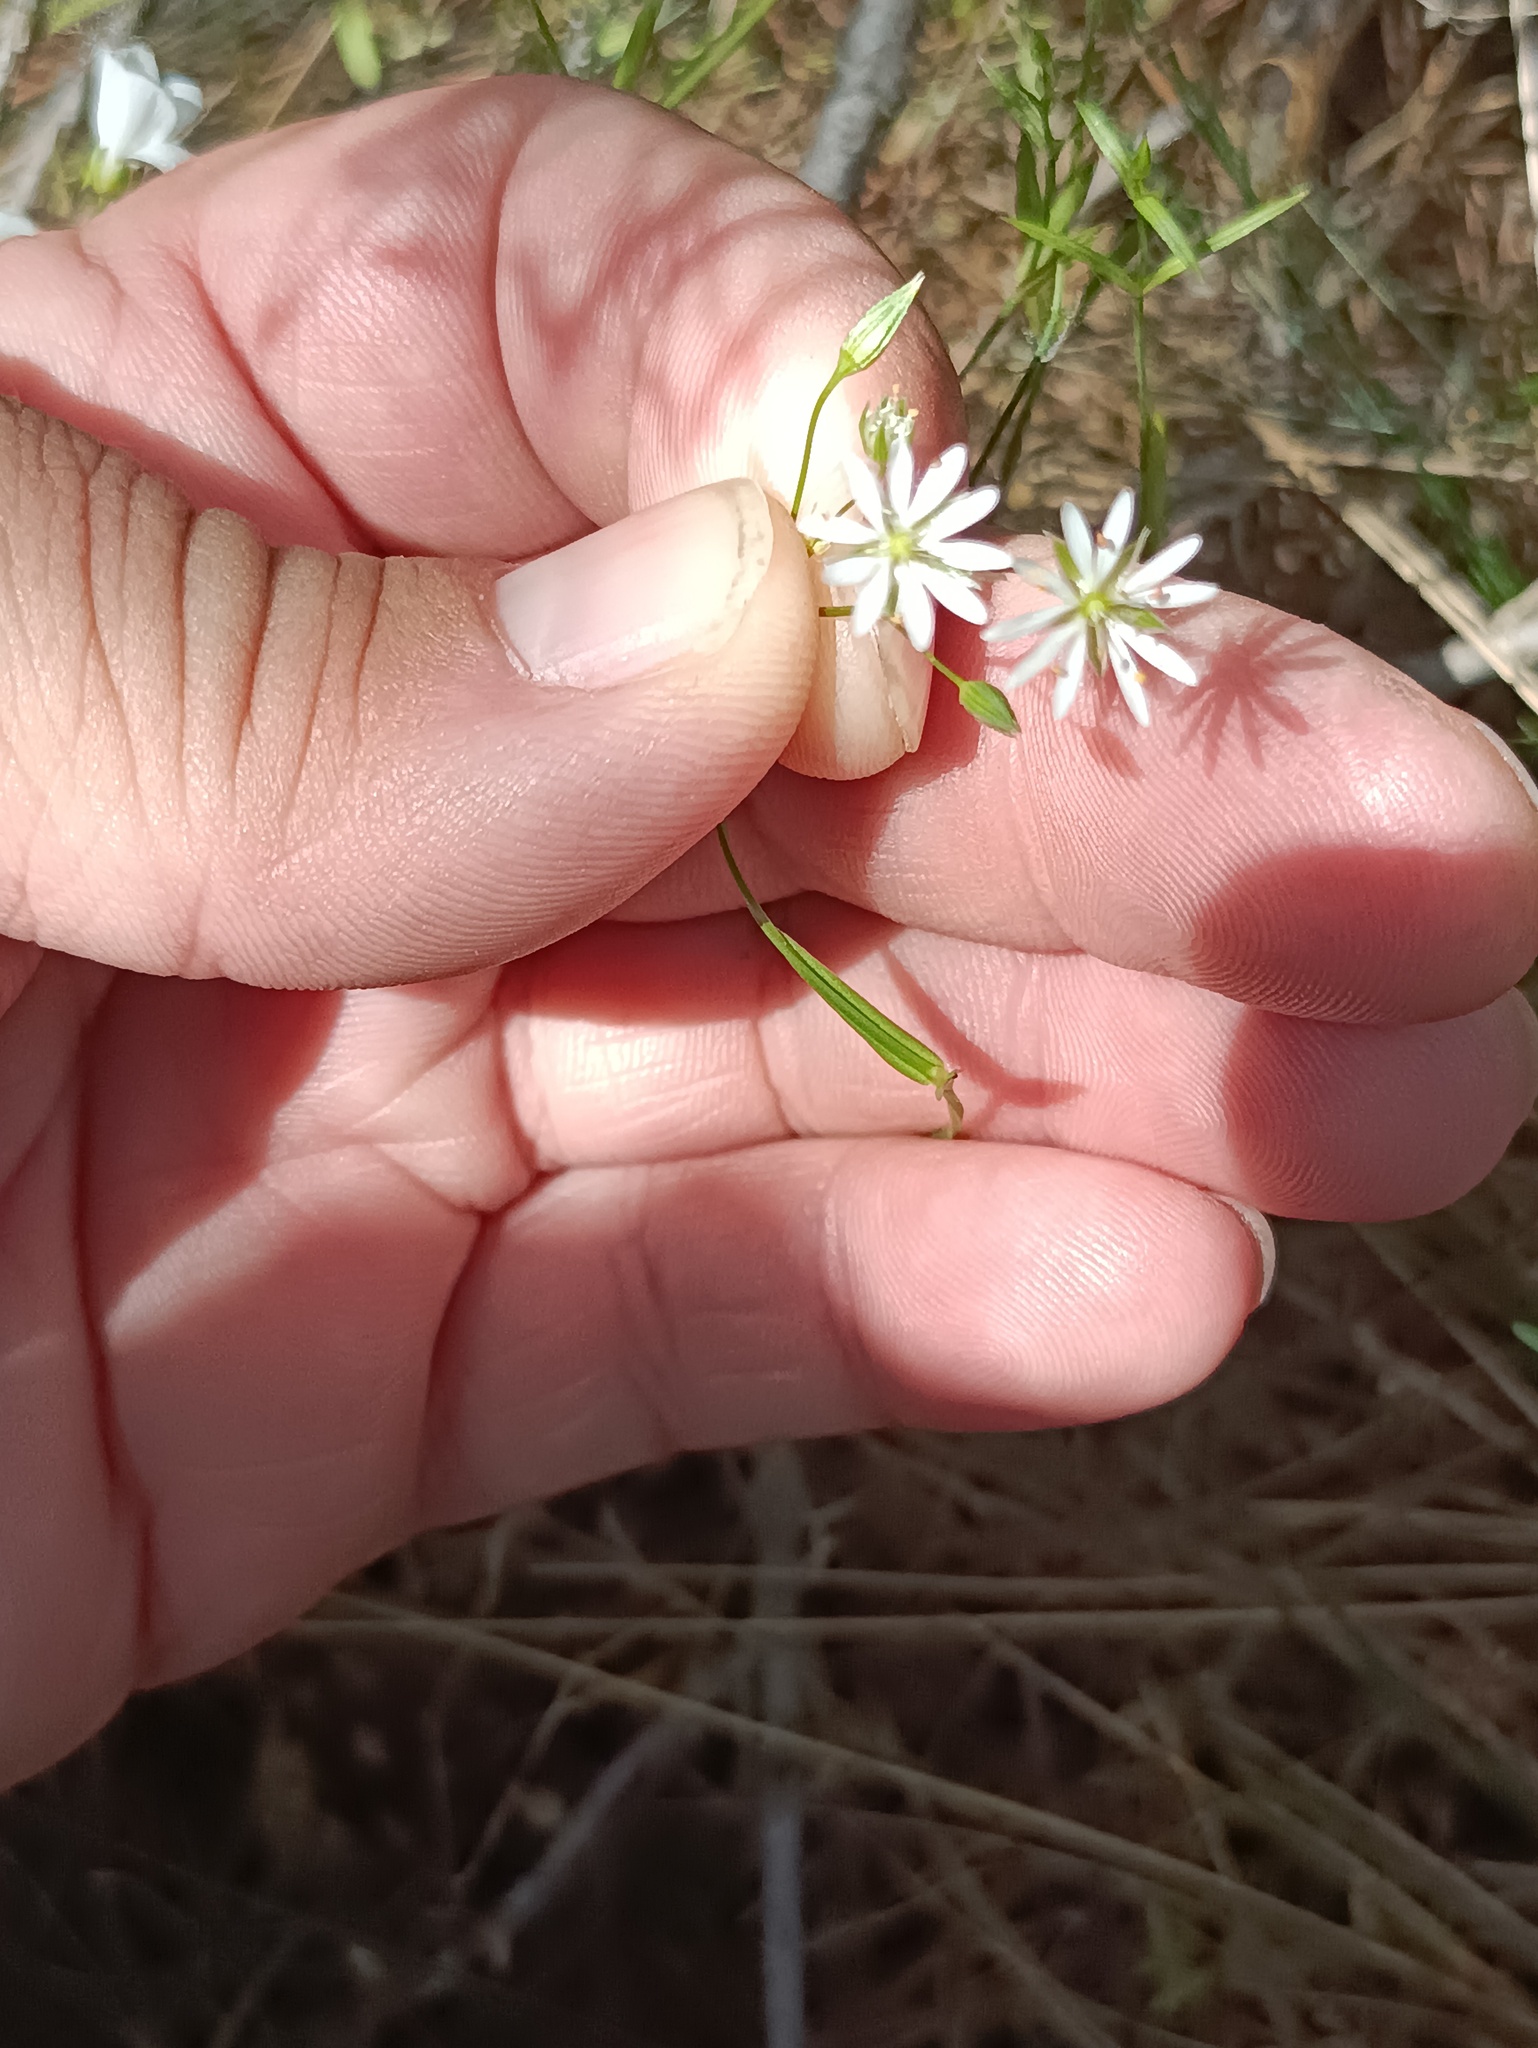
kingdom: Plantae
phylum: Tracheophyta
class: Magnoliopsida
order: Caryophyllales
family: Caryophyllaceae
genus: Stellaria
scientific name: Stellaria graminea
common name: Grass-like starwort
